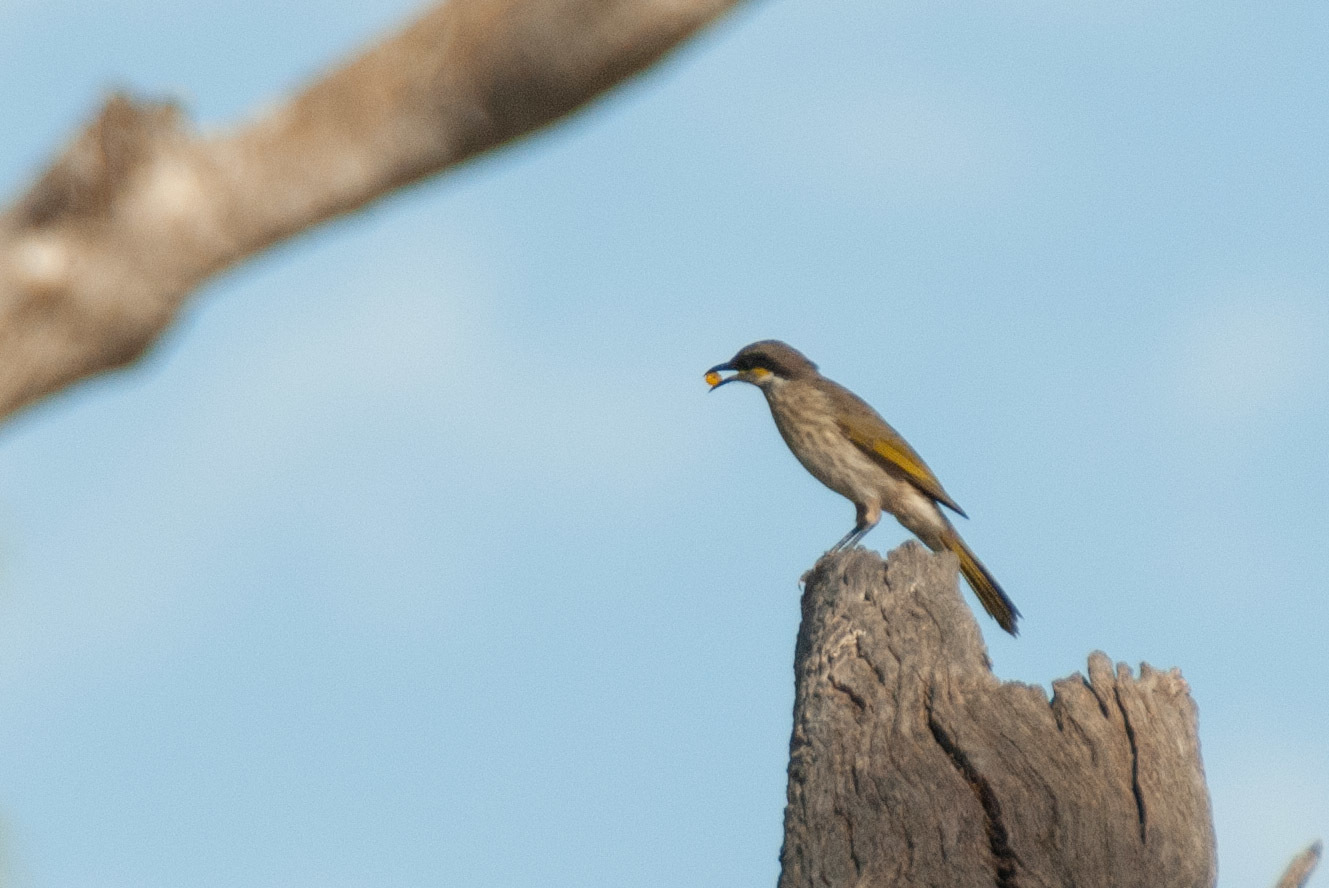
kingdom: Animalia
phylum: Chordata
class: Aves
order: Passeriformes
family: Meliphagidae
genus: Gavicalis
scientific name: Gavicalis virescens
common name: Singing honeyeater
